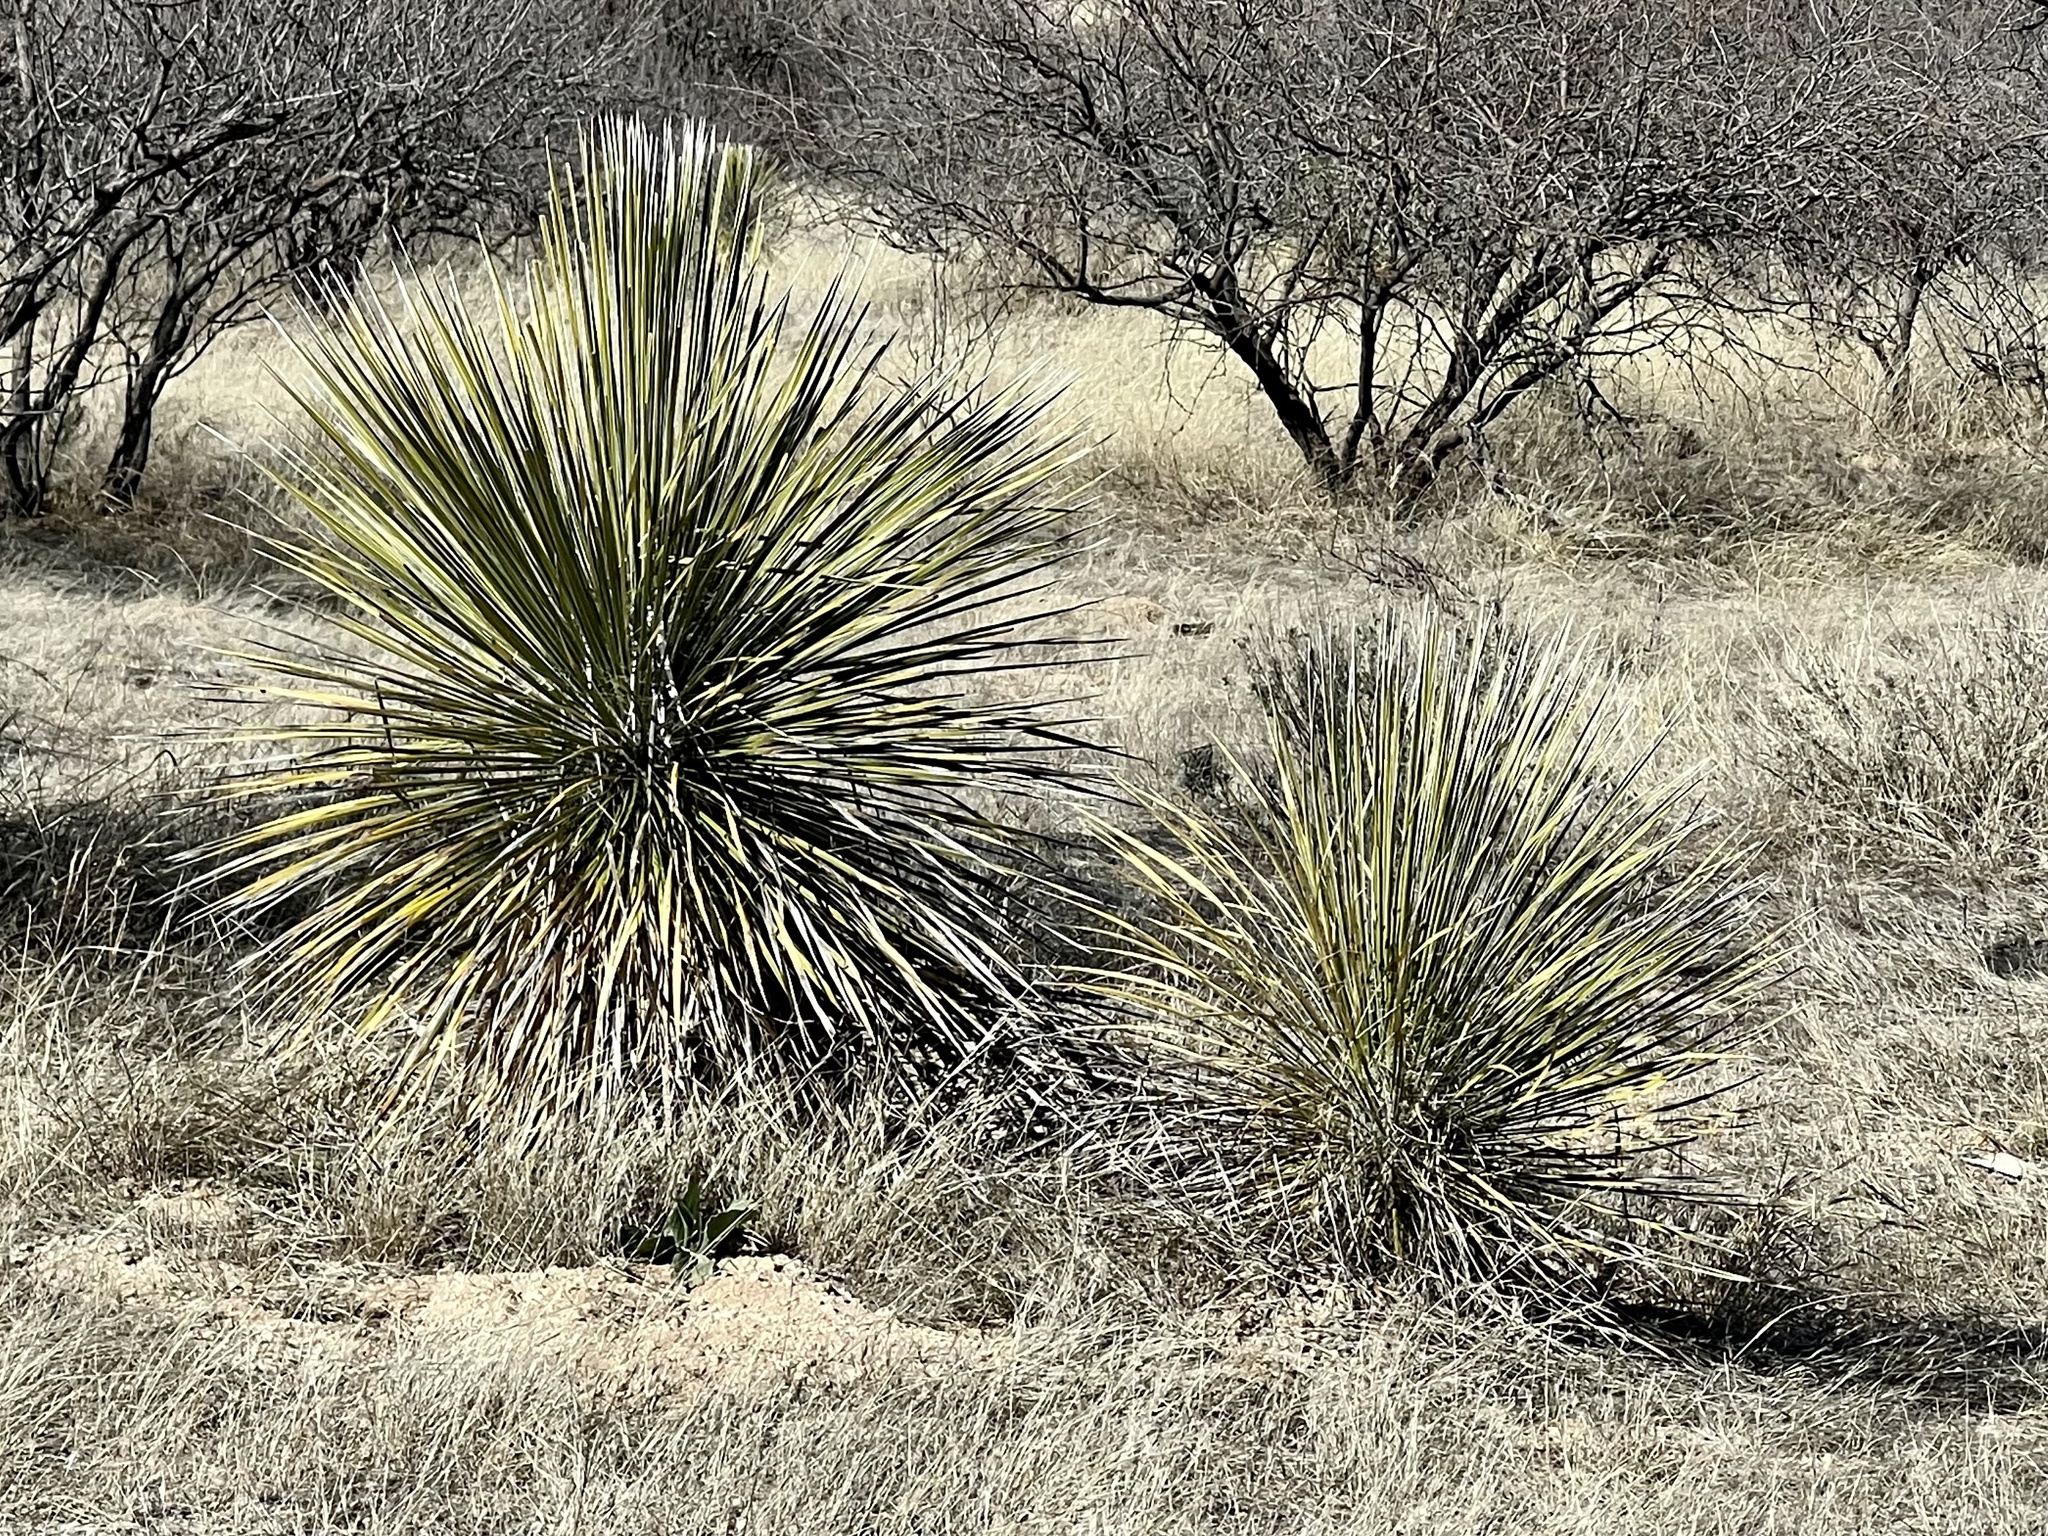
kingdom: Plantae
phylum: Tracheophyta
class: Liliopsida
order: Asparagales
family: Asparagaceae
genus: Yucca
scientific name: Yucca elata
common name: Palmella
